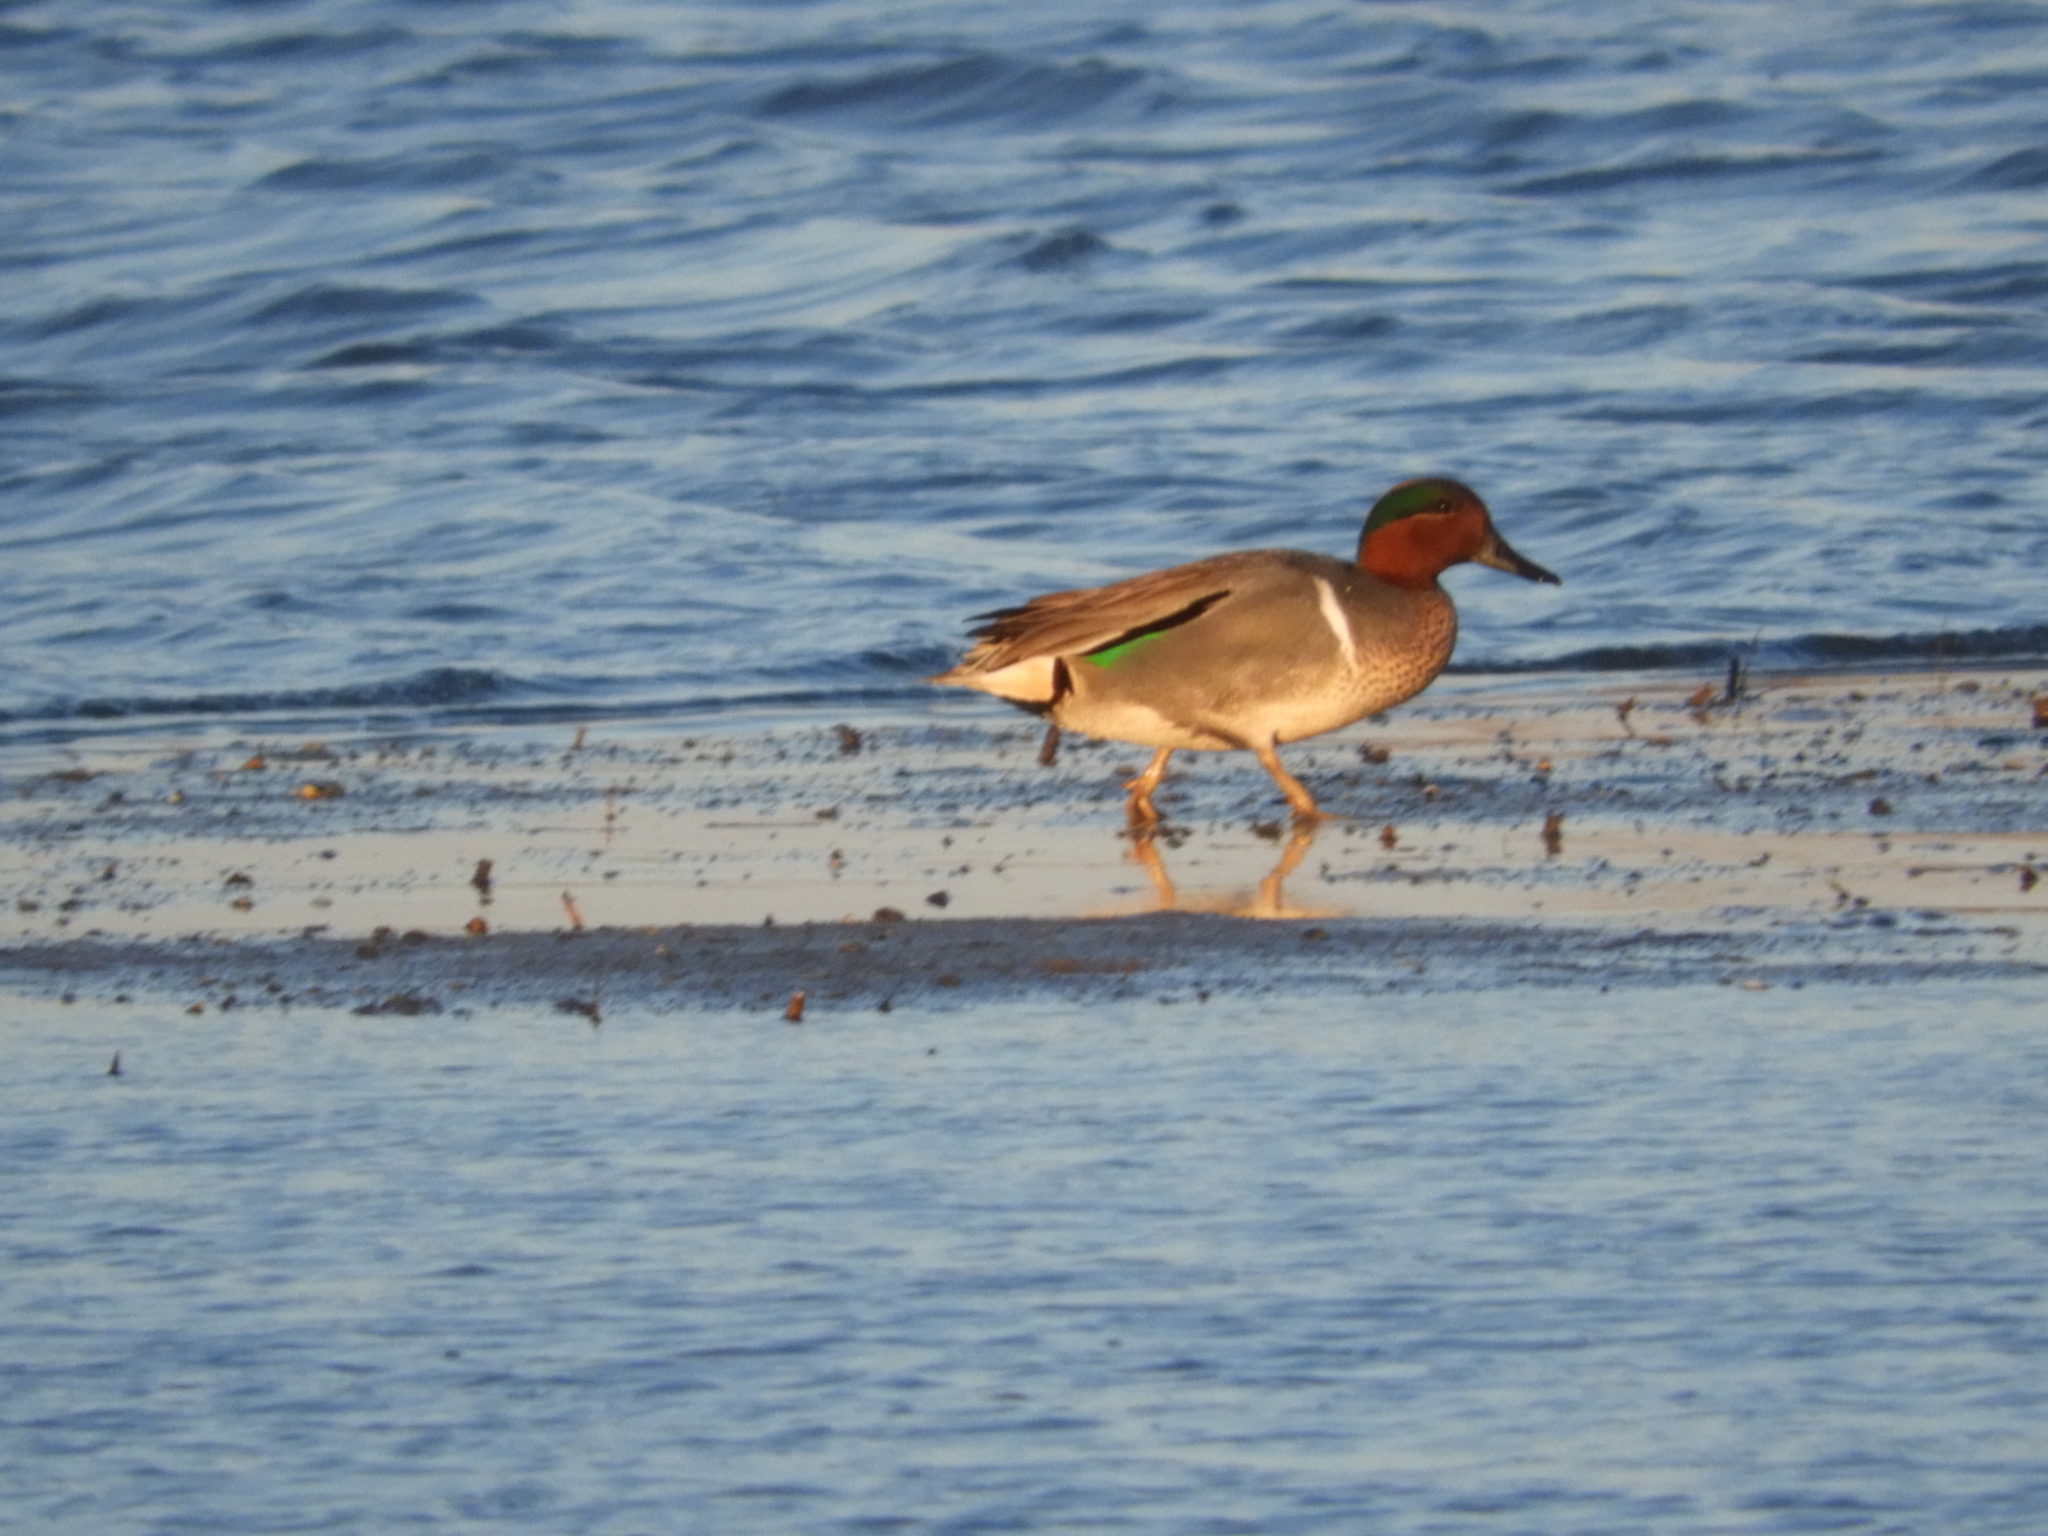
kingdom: Animalia
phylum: Chordata
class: Aves
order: Anseriformes
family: Anatidae
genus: Anas
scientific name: Anas crecca
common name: Eurasian teal
